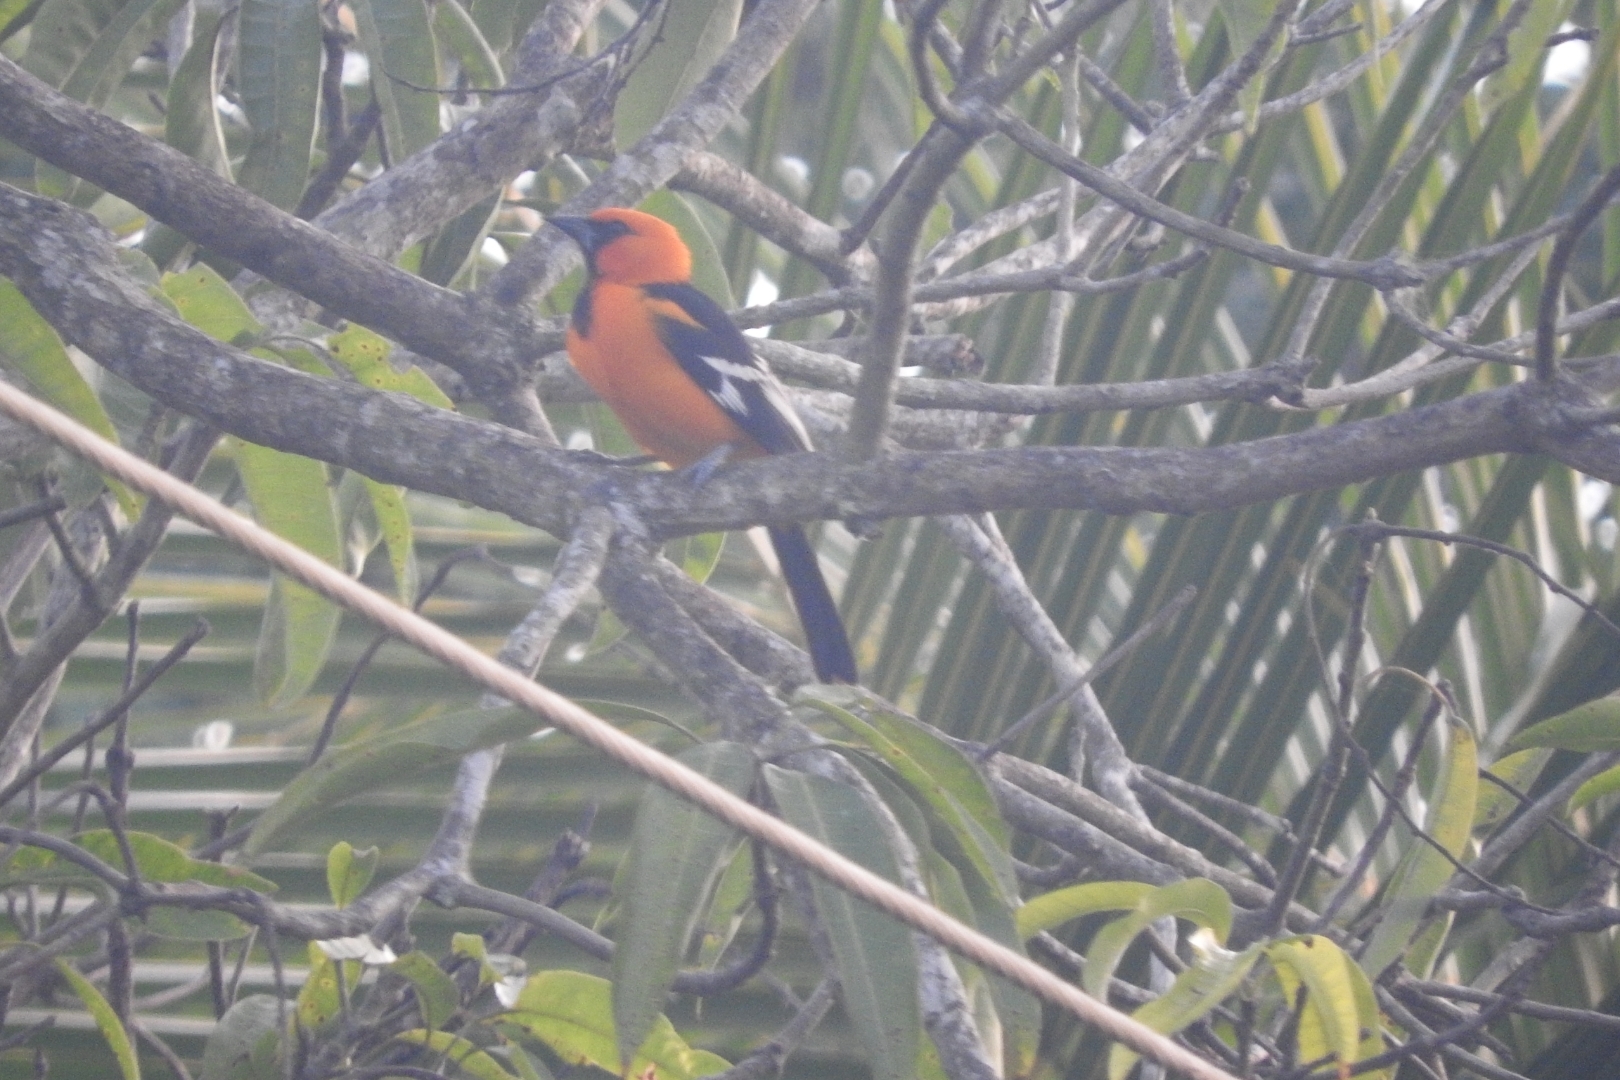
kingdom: Animalia
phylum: Chordata
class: Aves
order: Passeriformes
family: Icteridae
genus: Icterus
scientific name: Icterus gularis
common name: Altamira oriole
